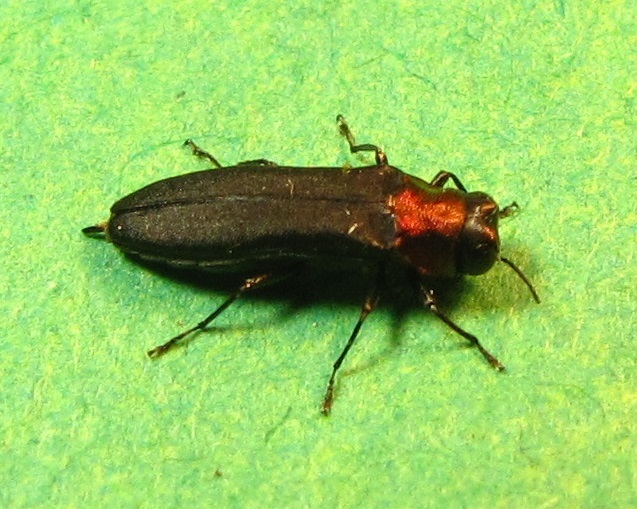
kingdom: Animalia
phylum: Arthropoda
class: Insecta
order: Coleoptera
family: Buprestidae
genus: Agrilus
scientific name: Agrilus ruficollis
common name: Red-necked cane borer beetle
